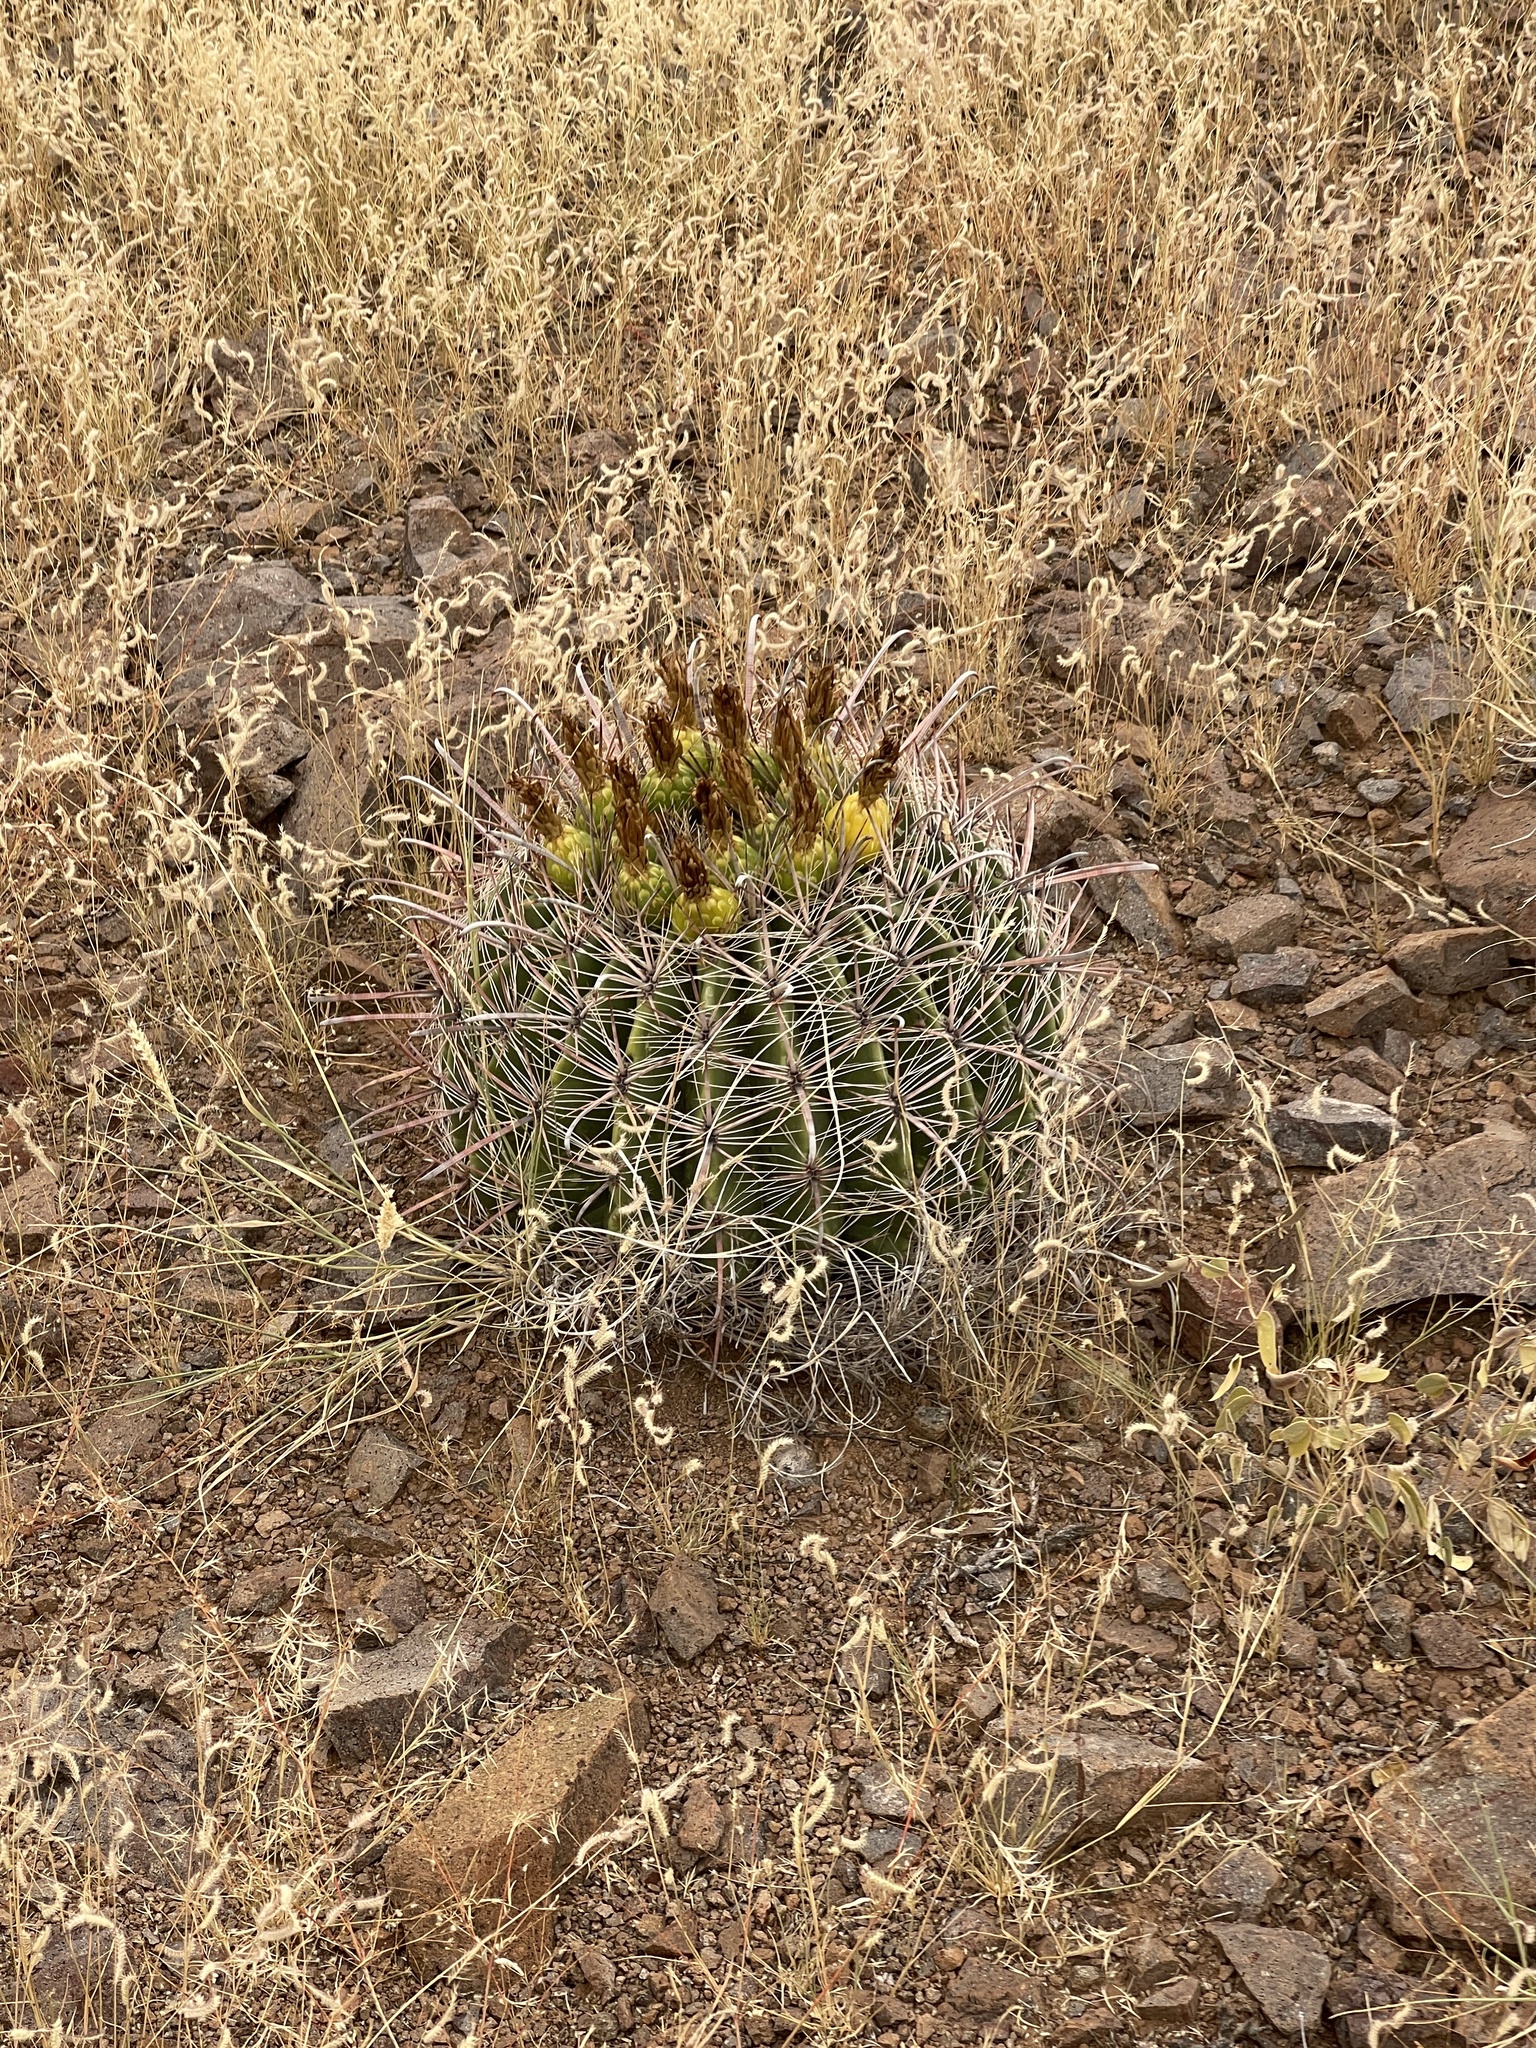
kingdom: Plantae
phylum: Tracheophyta
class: Magnoliopsida
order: Caryophyllales
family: Cactaceae
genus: Ferocactus
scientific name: Ferocactus wislizeni
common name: Candy barrel cactus
